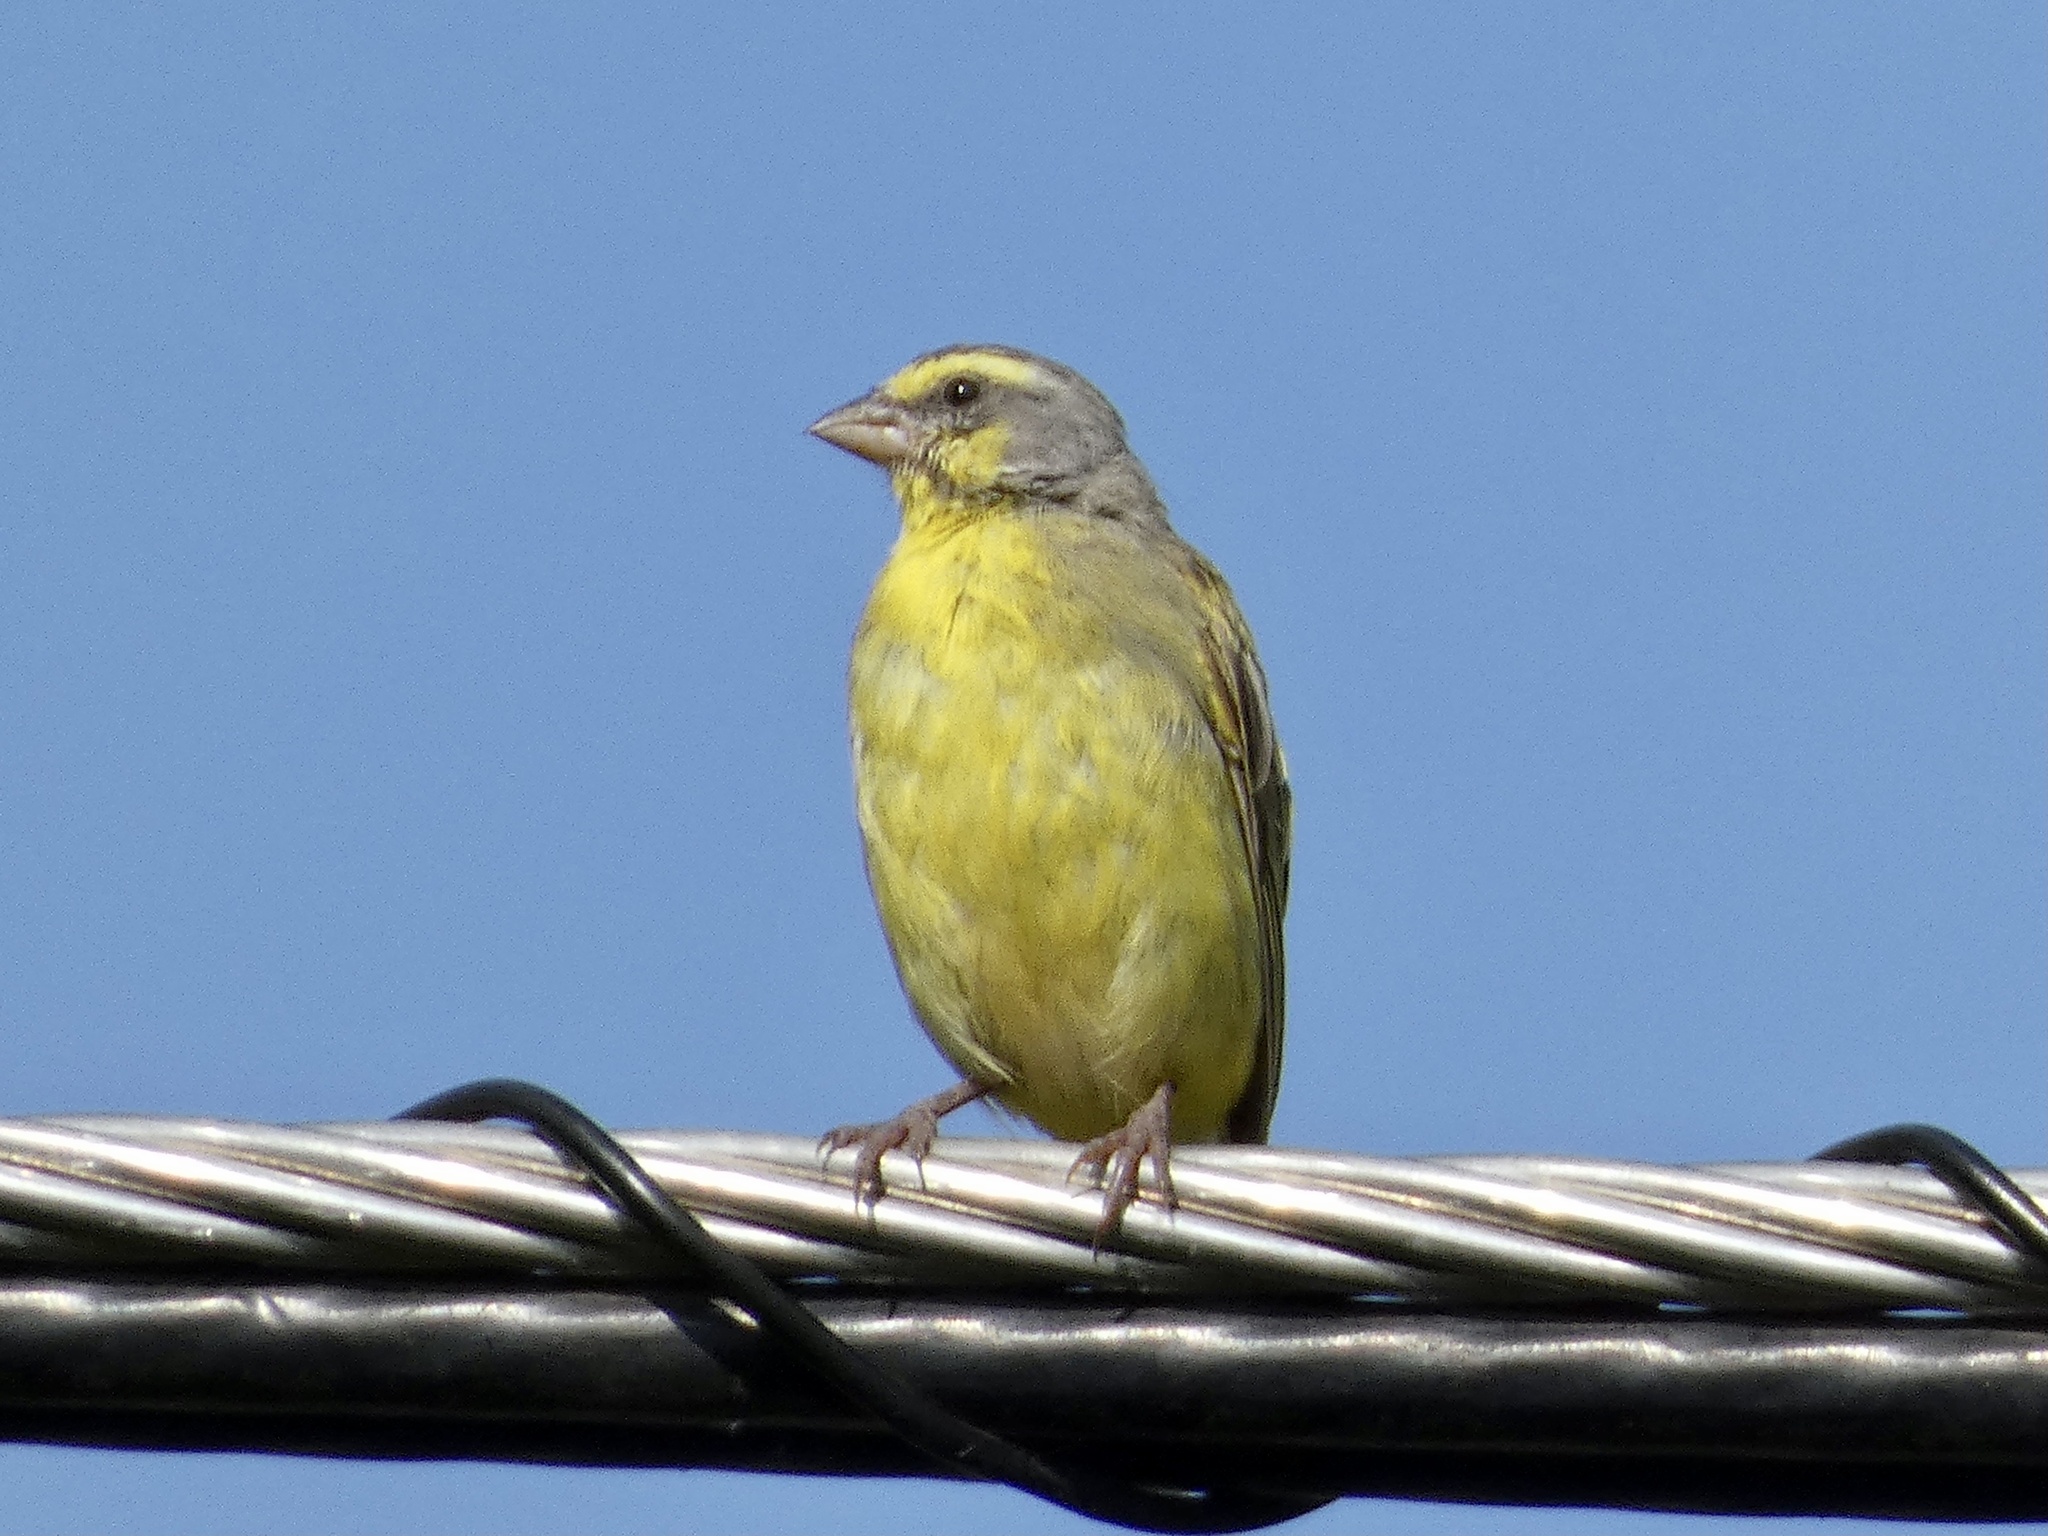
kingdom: Animalia
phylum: Chordata
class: Aves
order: Passeriformes
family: Fringillidae
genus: Crithagra
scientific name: Crithagra mozambica
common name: Yellow-fronted canary
